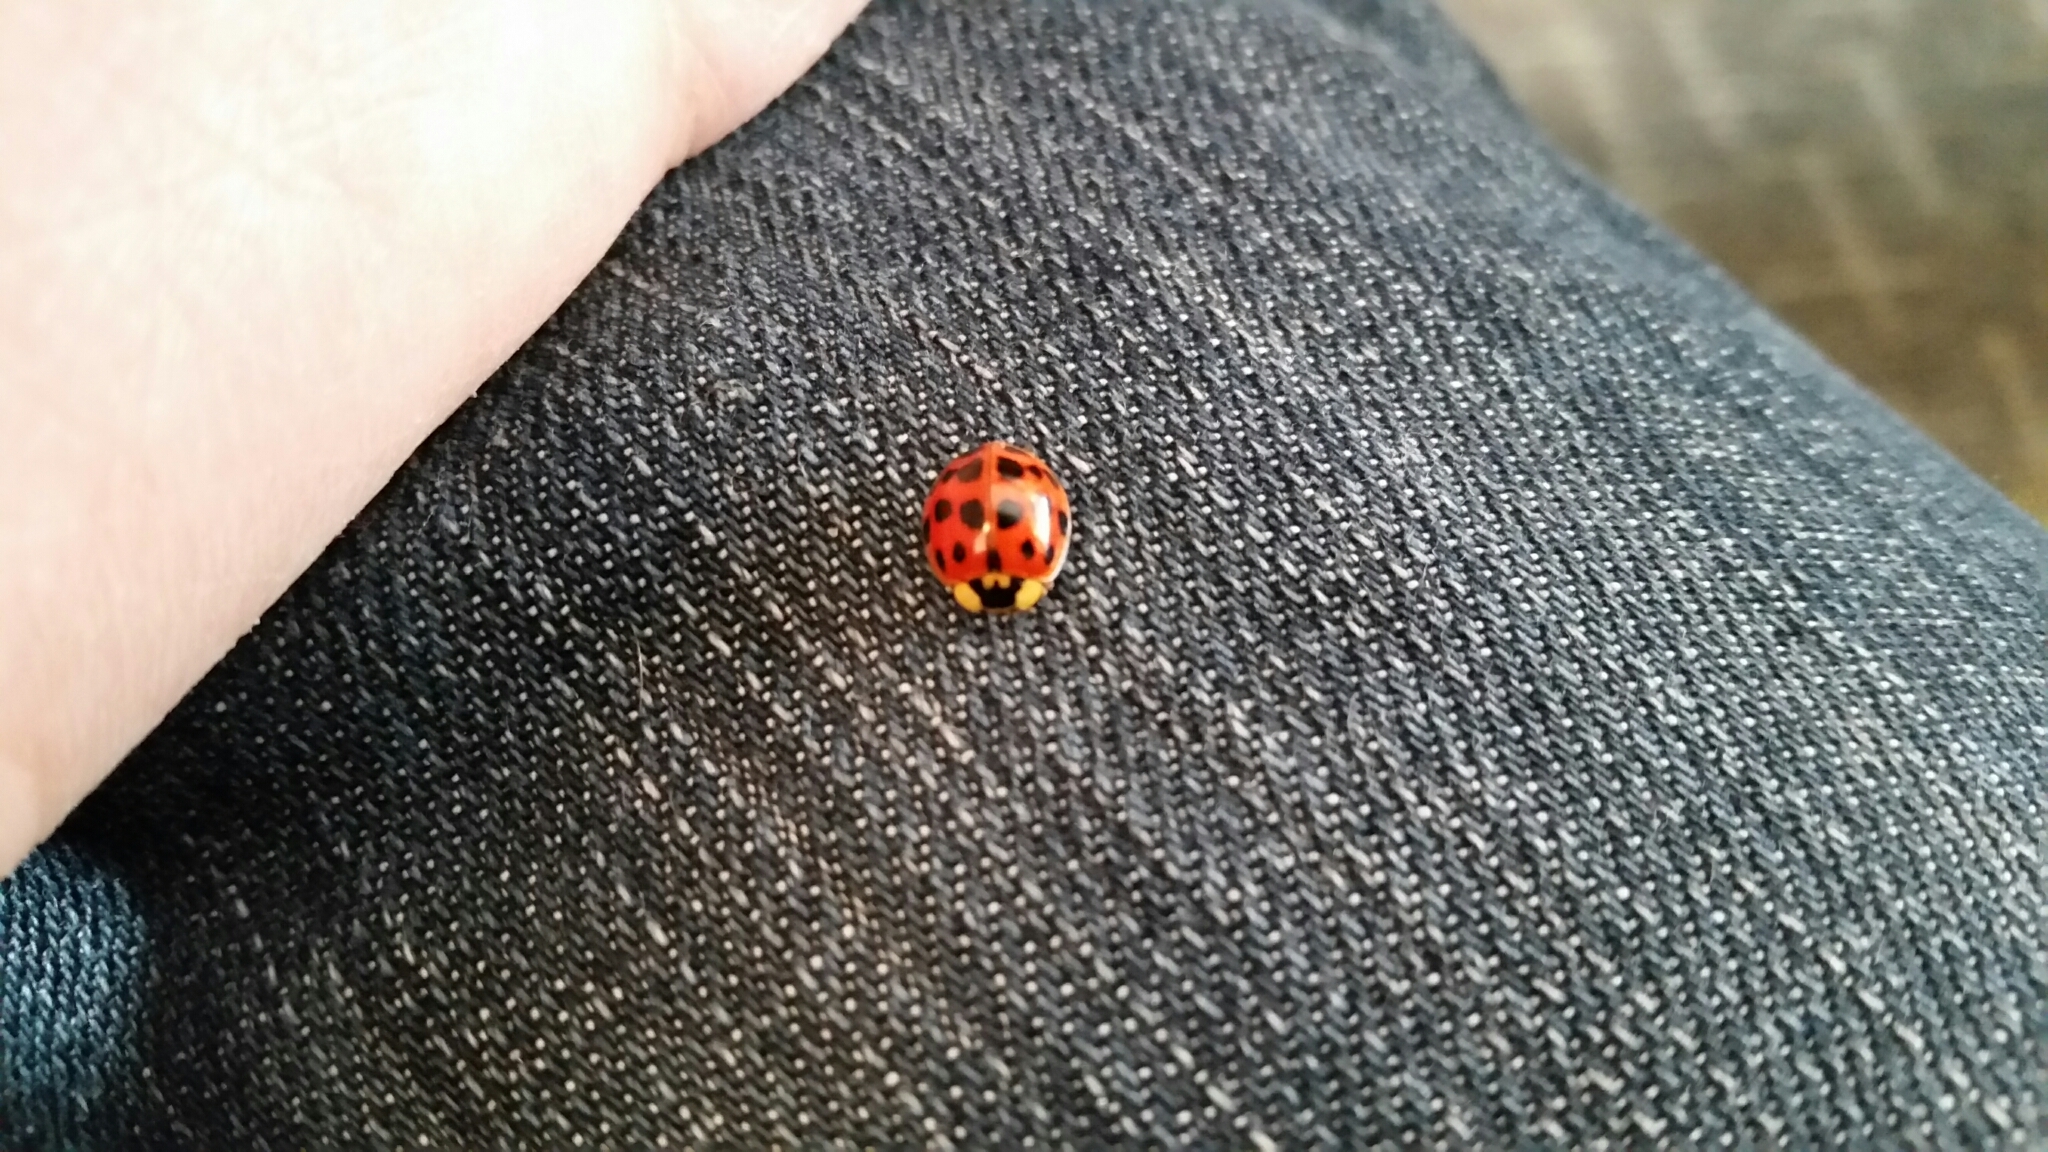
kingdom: Animalia
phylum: Arthropoda
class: Insecta
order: Coleoptera
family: Coccinellidae
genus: Harmonia
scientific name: Harmonia axyridis
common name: Harlequin ladybird
